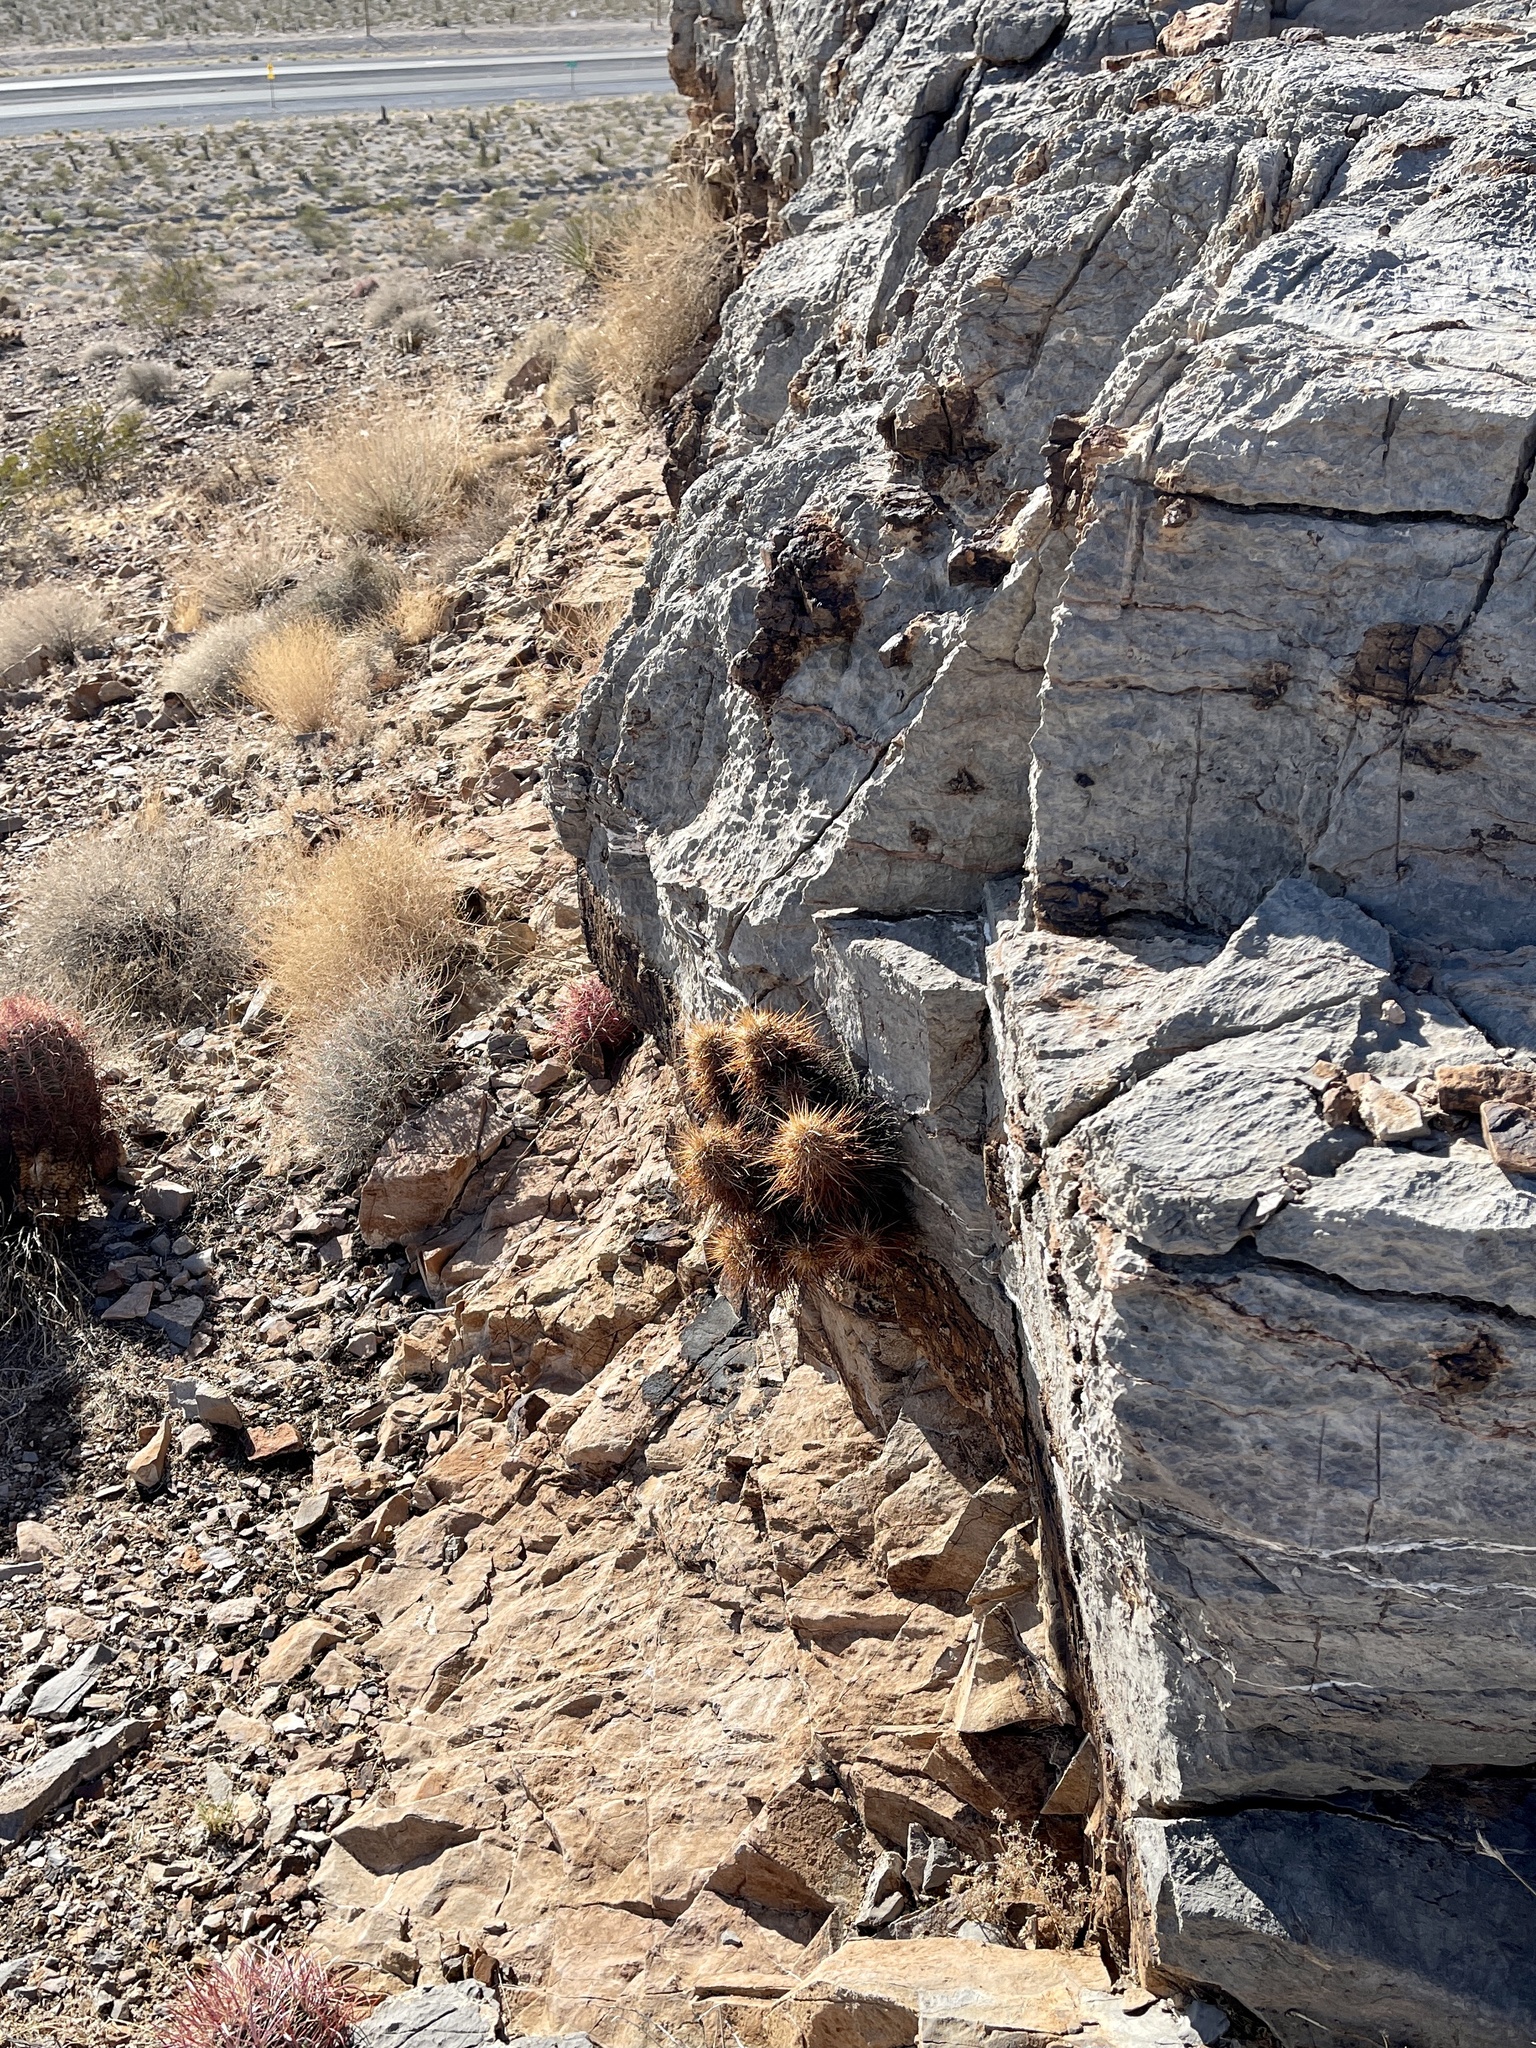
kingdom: Plantae
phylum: Tracheophyta
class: Magnoliopsida
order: Caryophyllales
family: Cactaceae
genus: Echinocereus
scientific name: Echinocereus engelmannii
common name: Engelmann's hedgehog cactus
